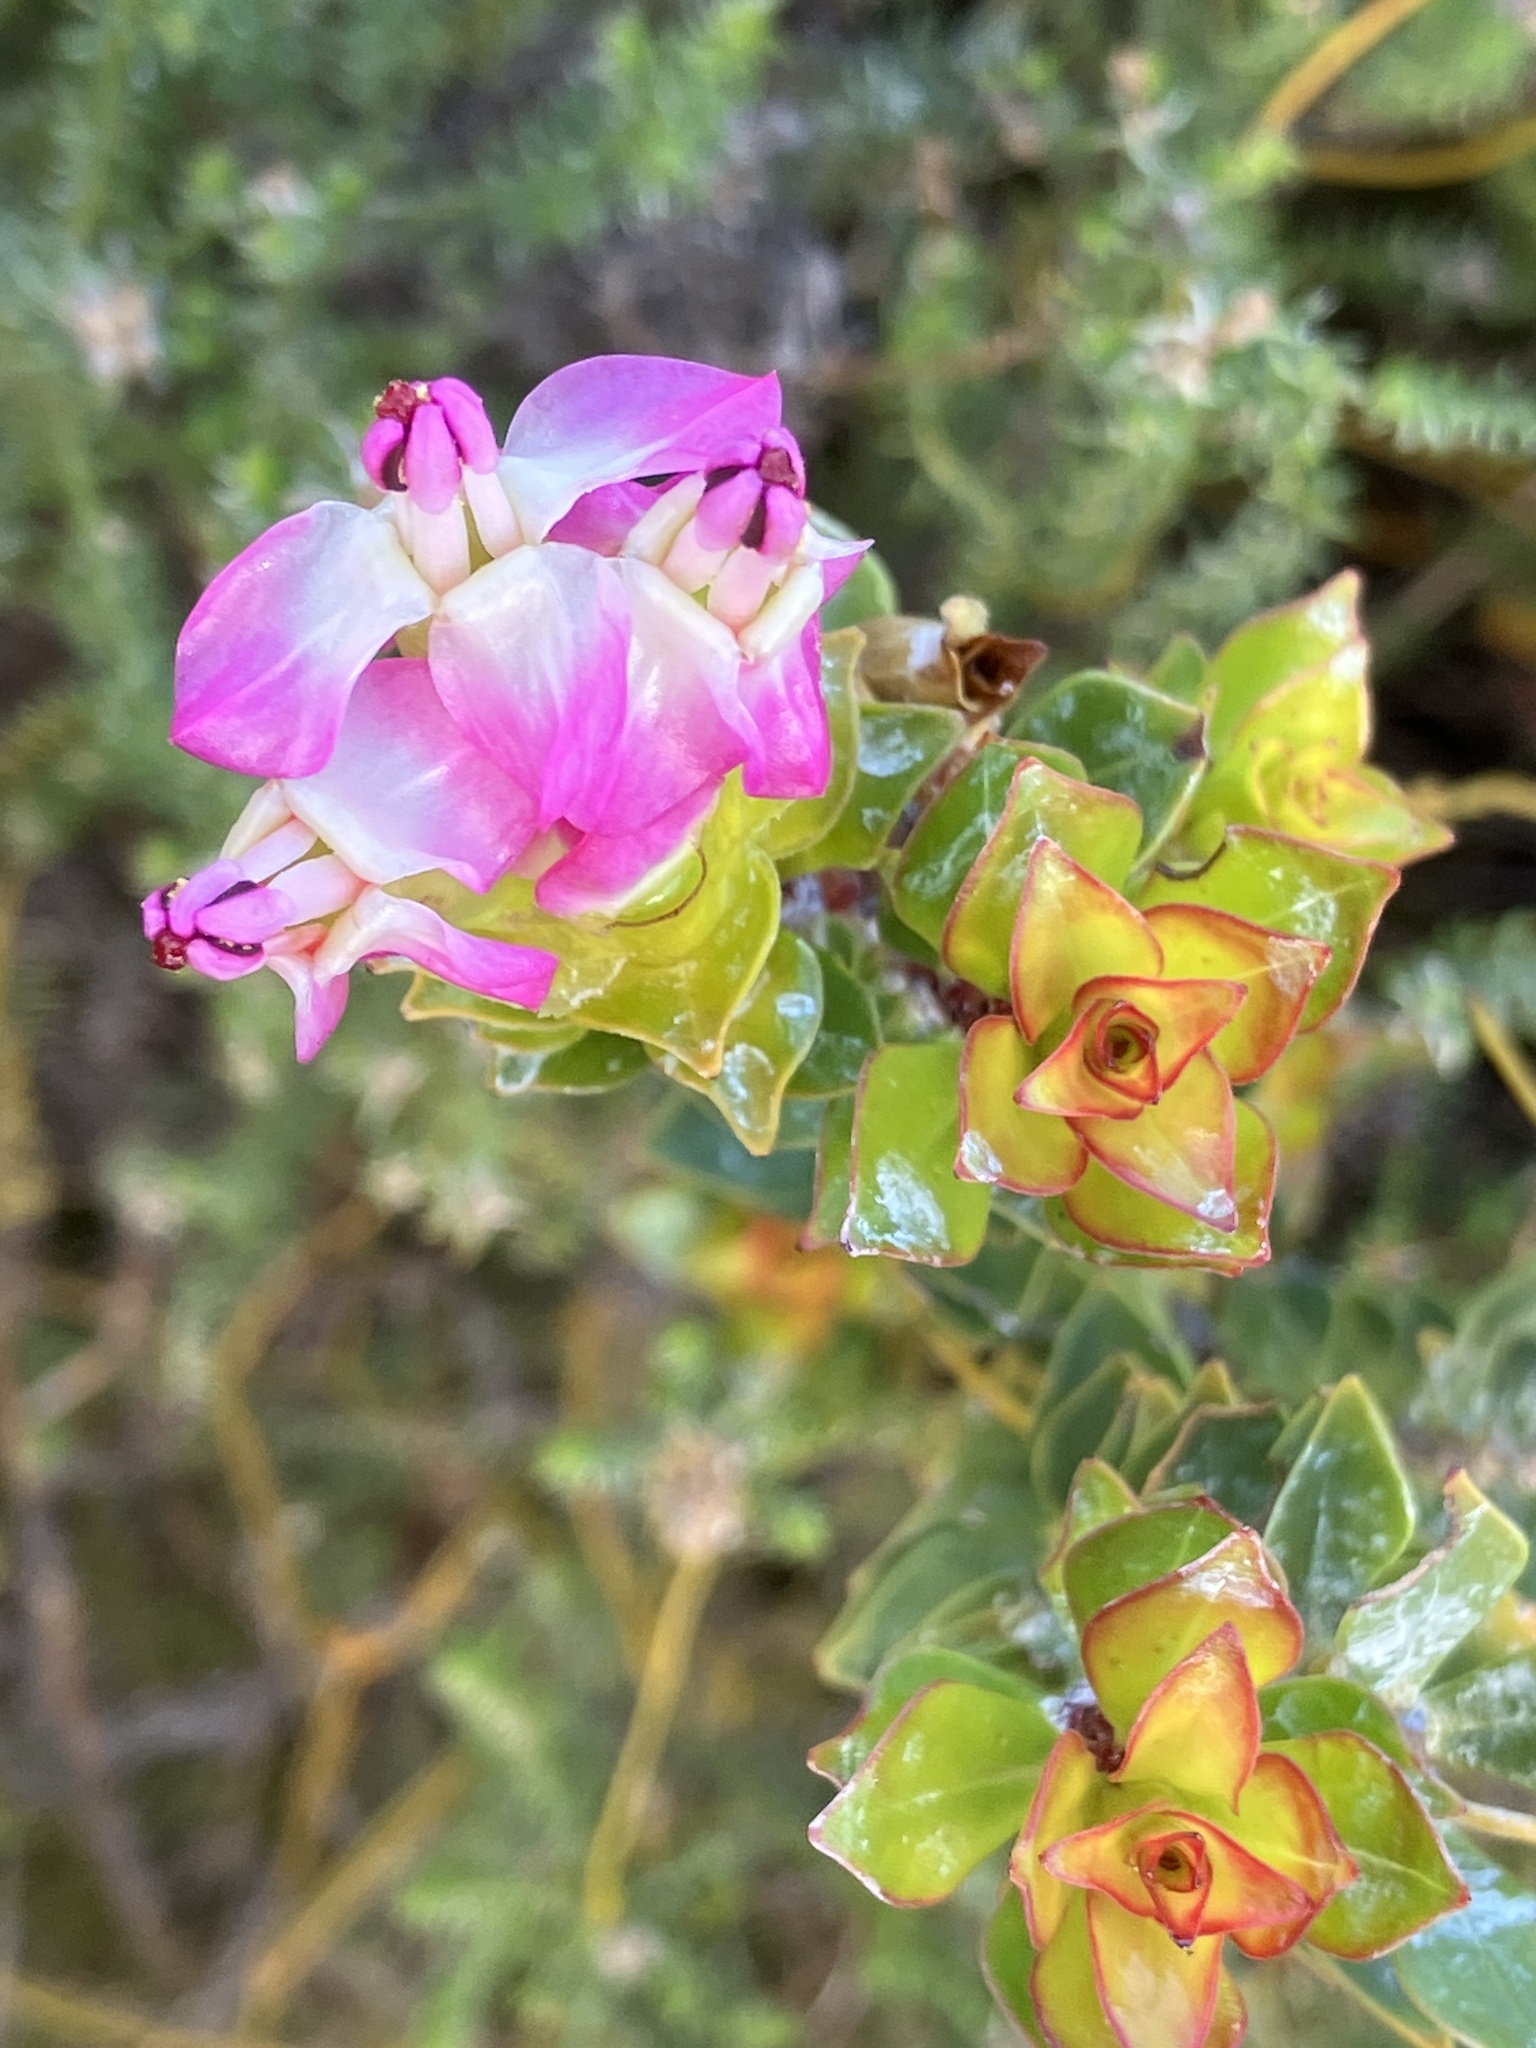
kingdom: Plantae
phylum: Tracheophyta
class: Magnoliopsida
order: Myrtales
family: Penaeaceae
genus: Saltera
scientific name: Saltera sarcocolla
